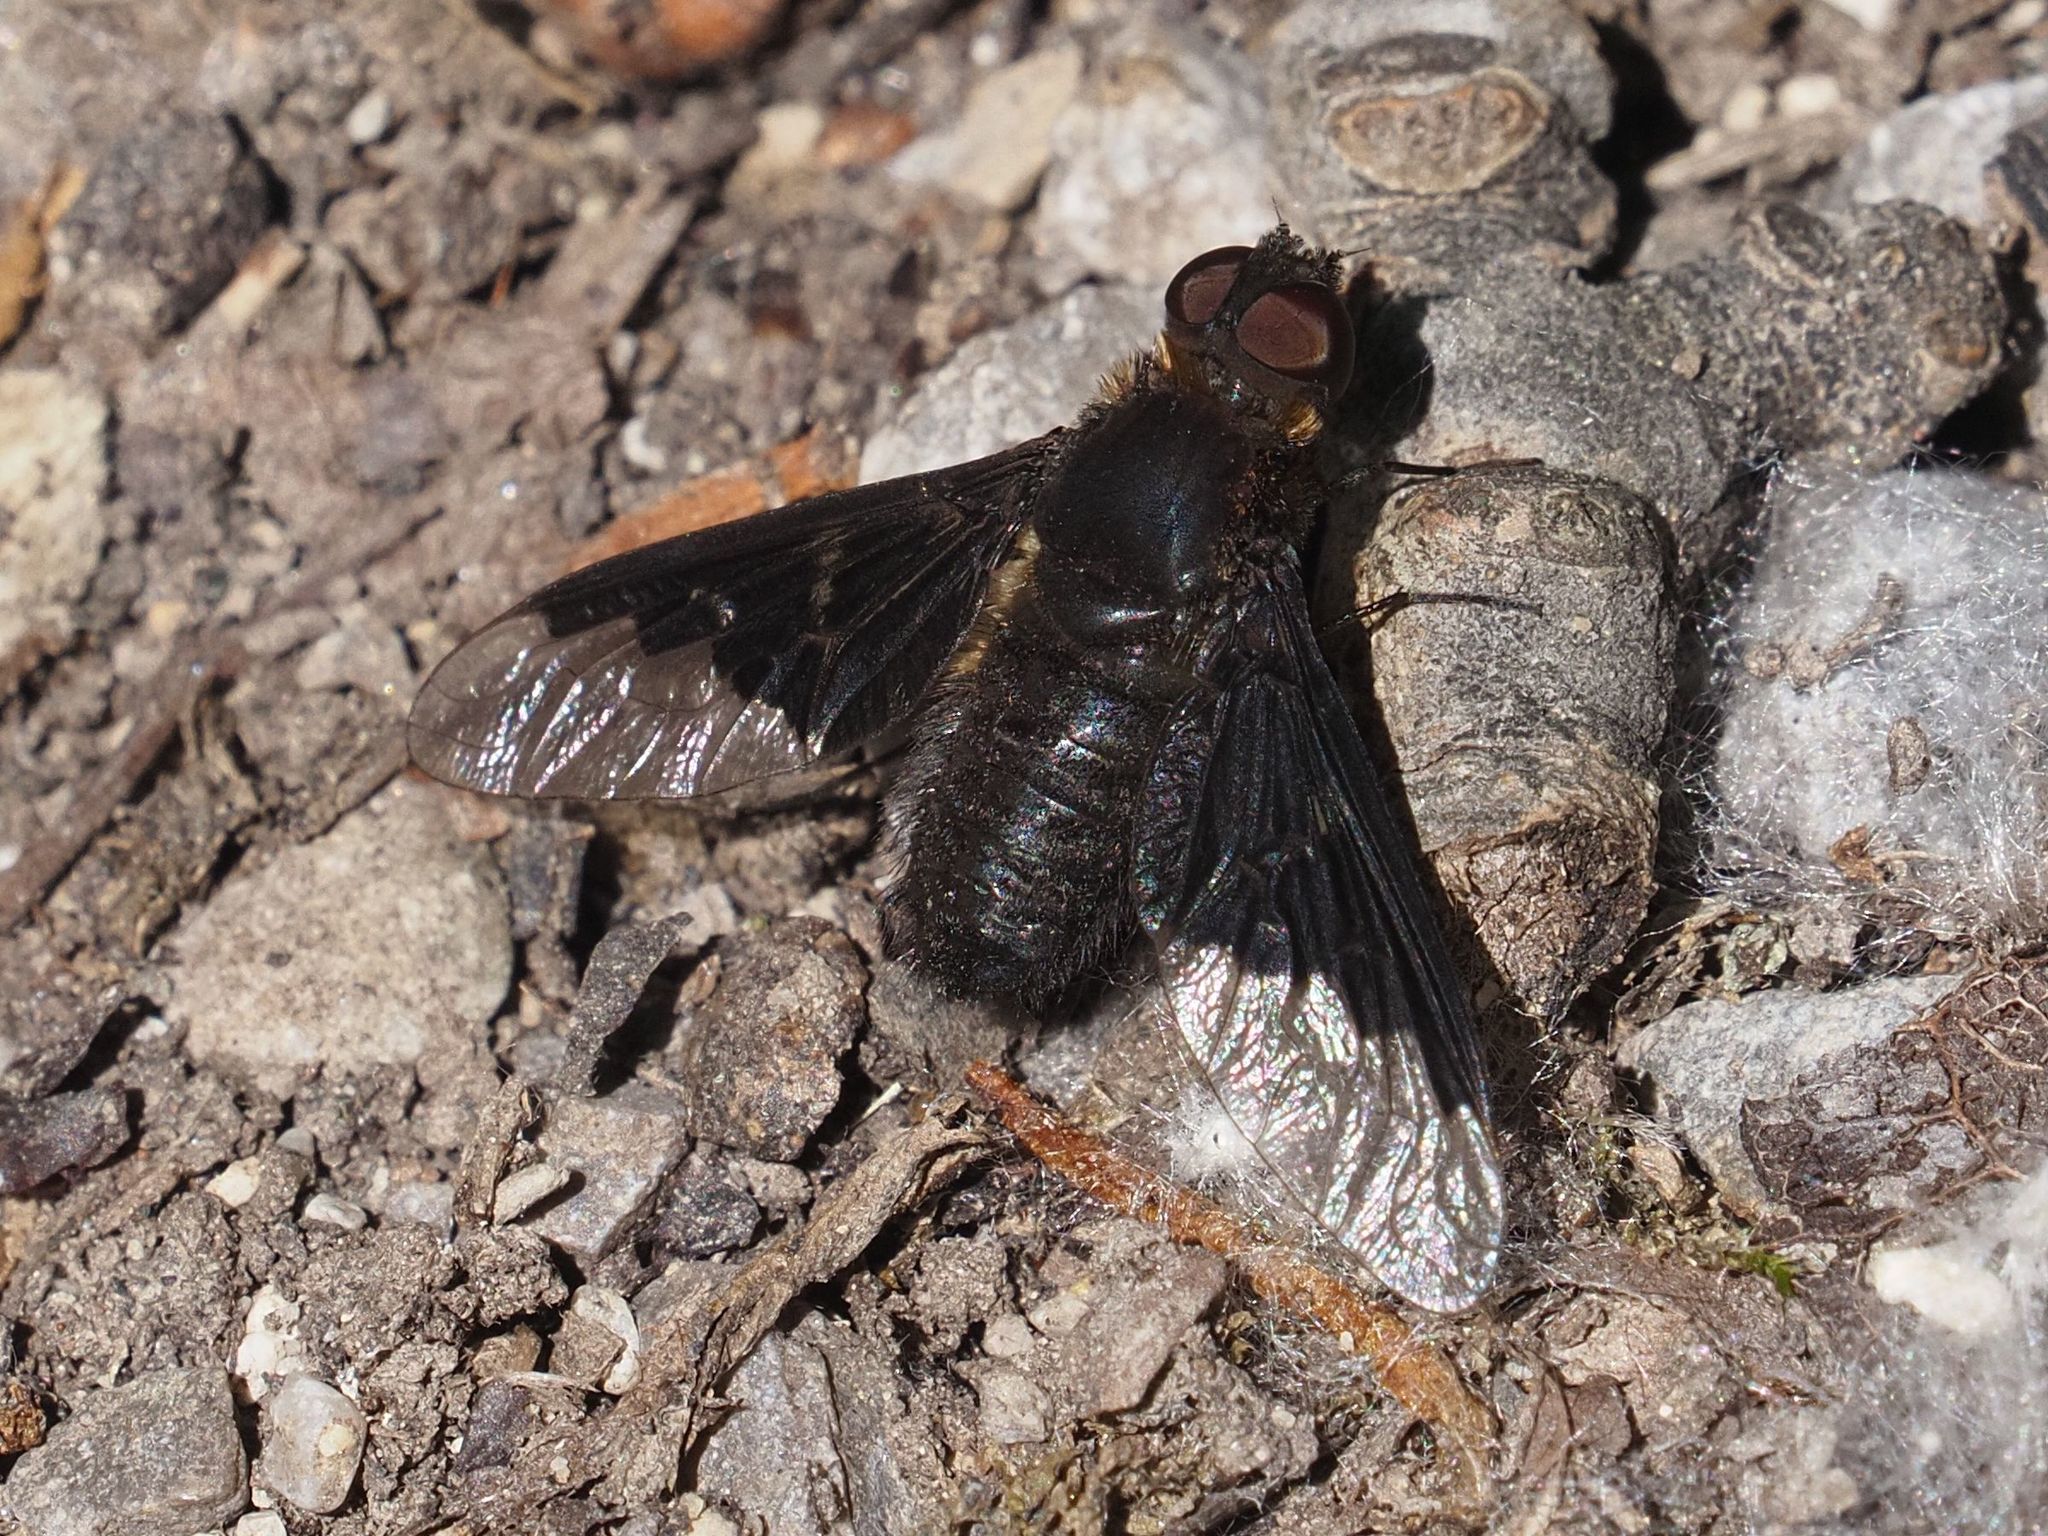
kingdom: Animalia
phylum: Arthropoda
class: Insecta
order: Diptera
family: Bombyliidae
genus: Hemipenthes
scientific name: Hemipenthes morio
